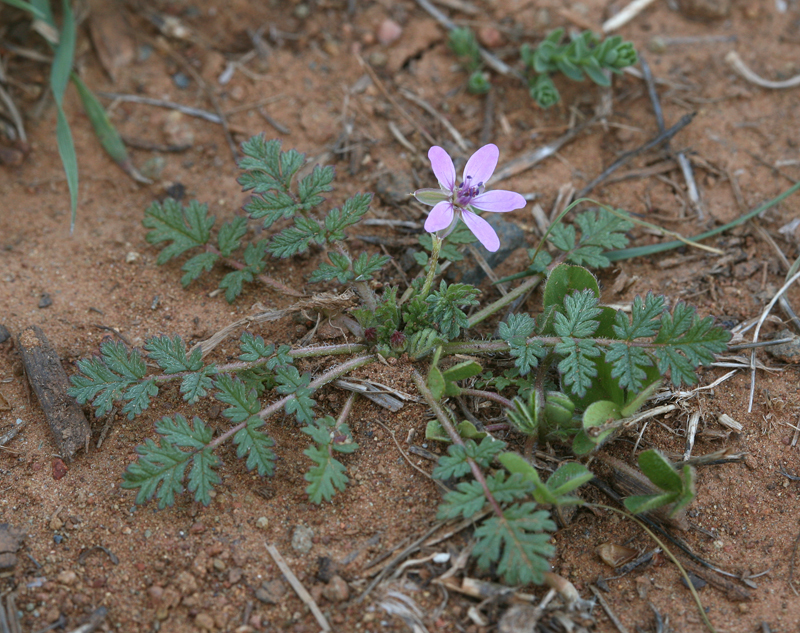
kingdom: Plantae
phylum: Tracheophyta
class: Magnoliopsida
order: Geraniales
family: Geraniaceae
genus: Erodium
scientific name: Erodium cicutarium
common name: Common stork's-bill
